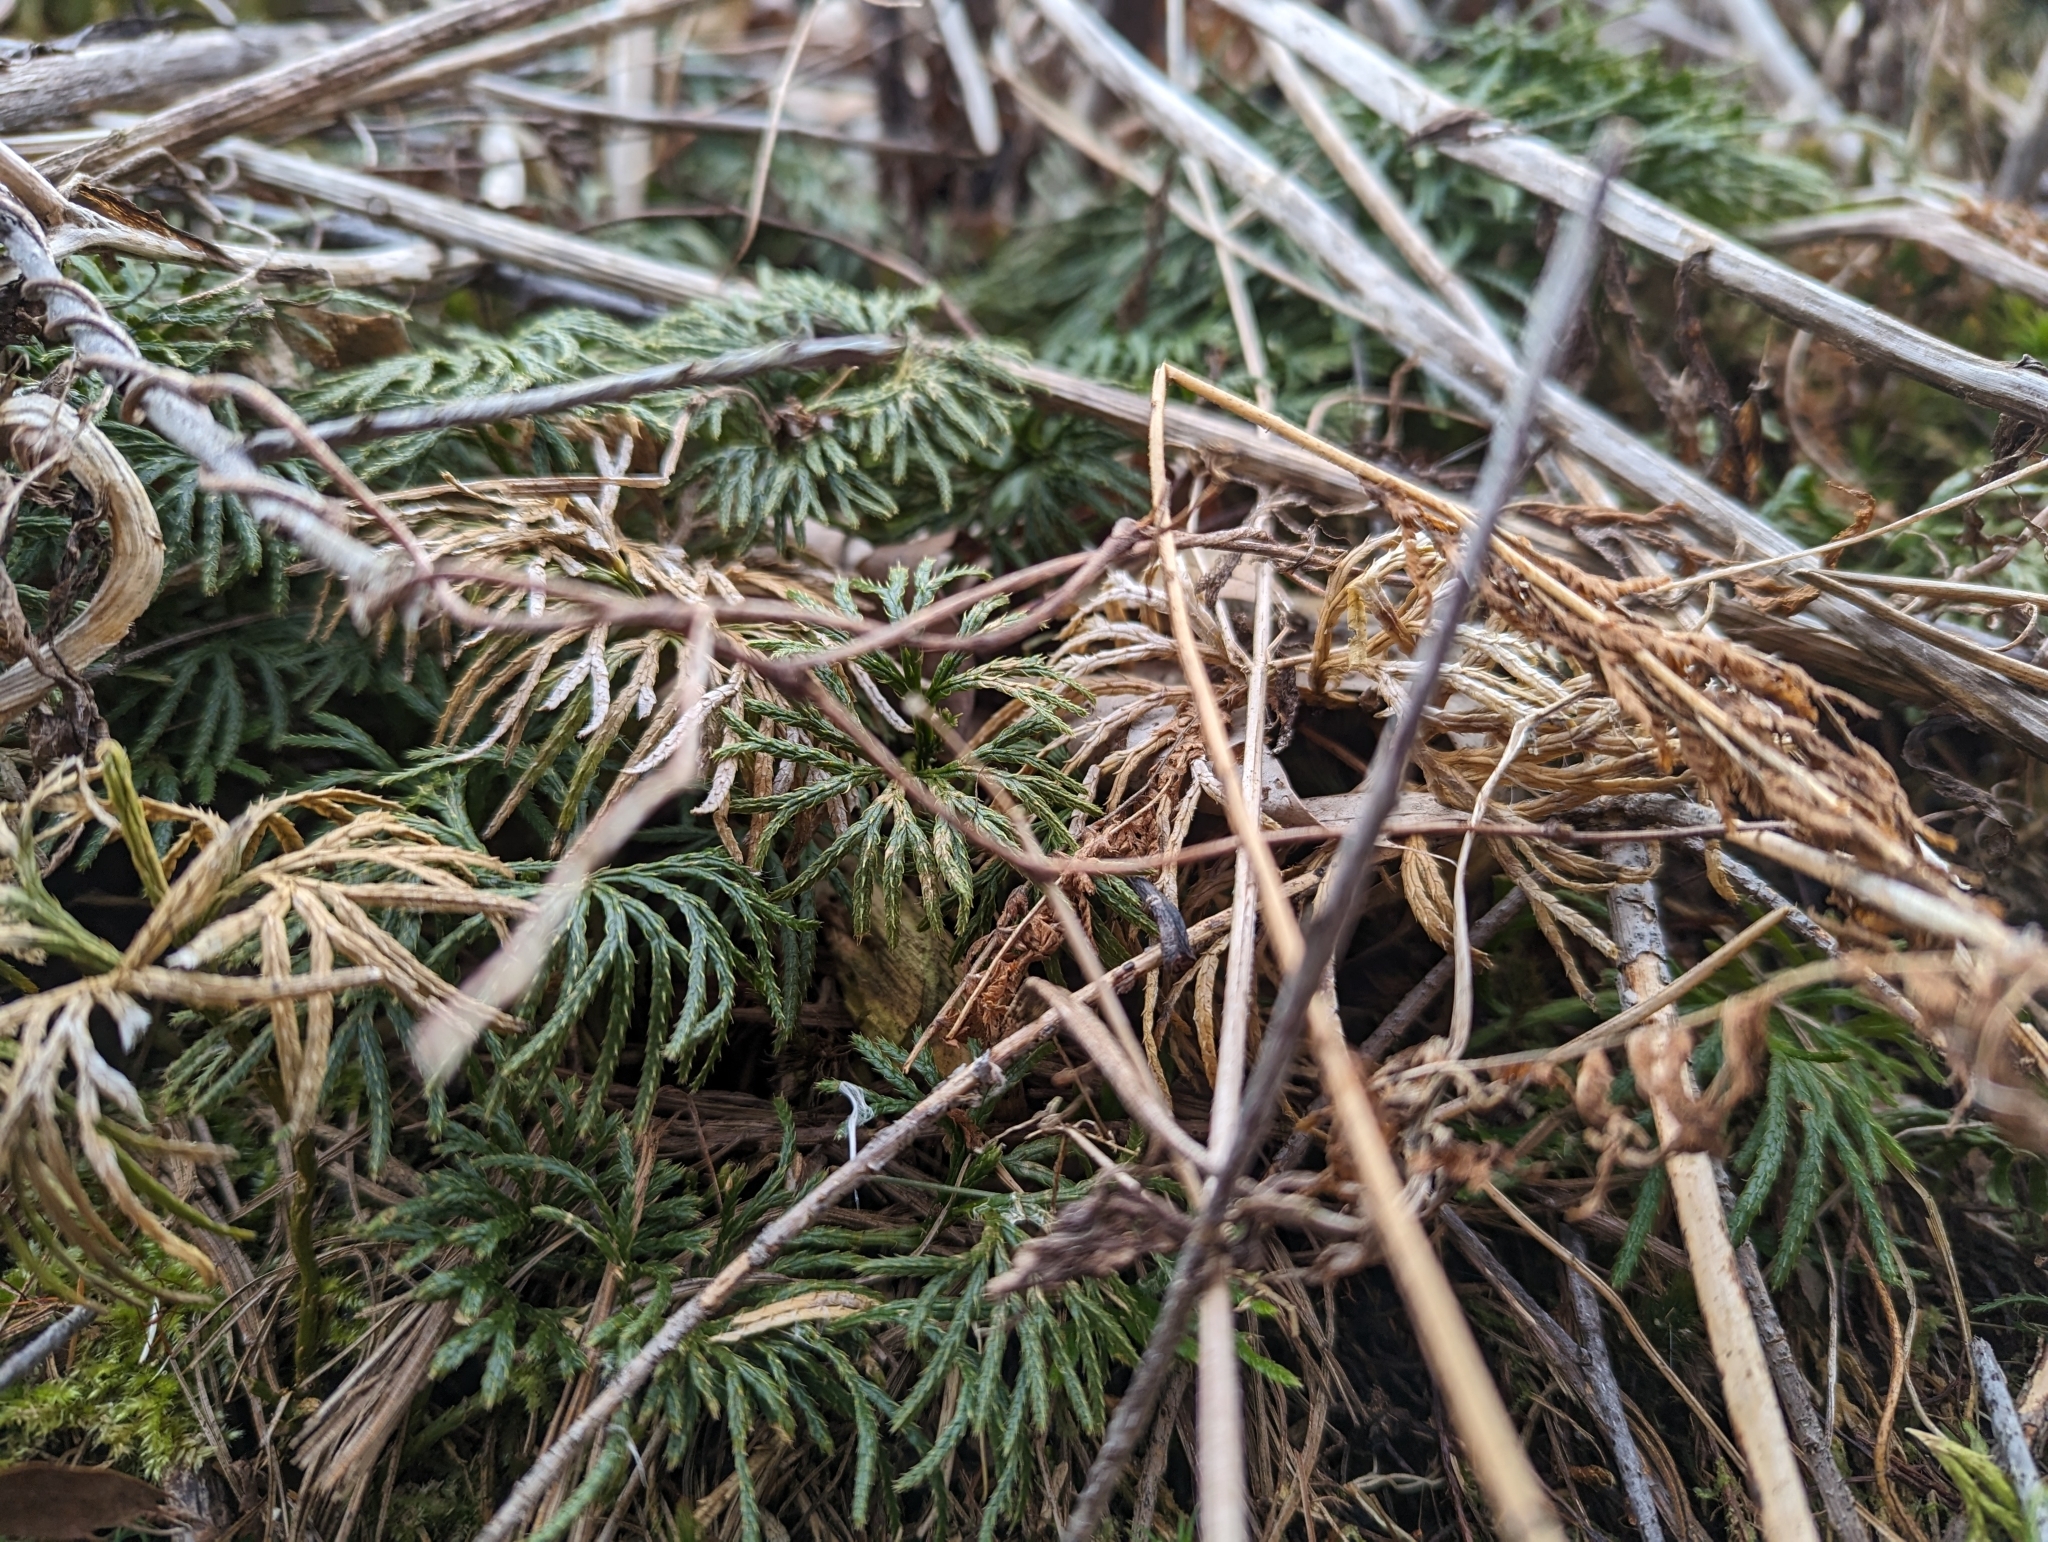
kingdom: Plantae
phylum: Tracheophyta
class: Lycopodiopsida
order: Lycopodiales
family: Lycopodiaceae
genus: Diphasiastrum
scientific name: Diphasiastrum tristachyum
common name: Blue ground-cedar
